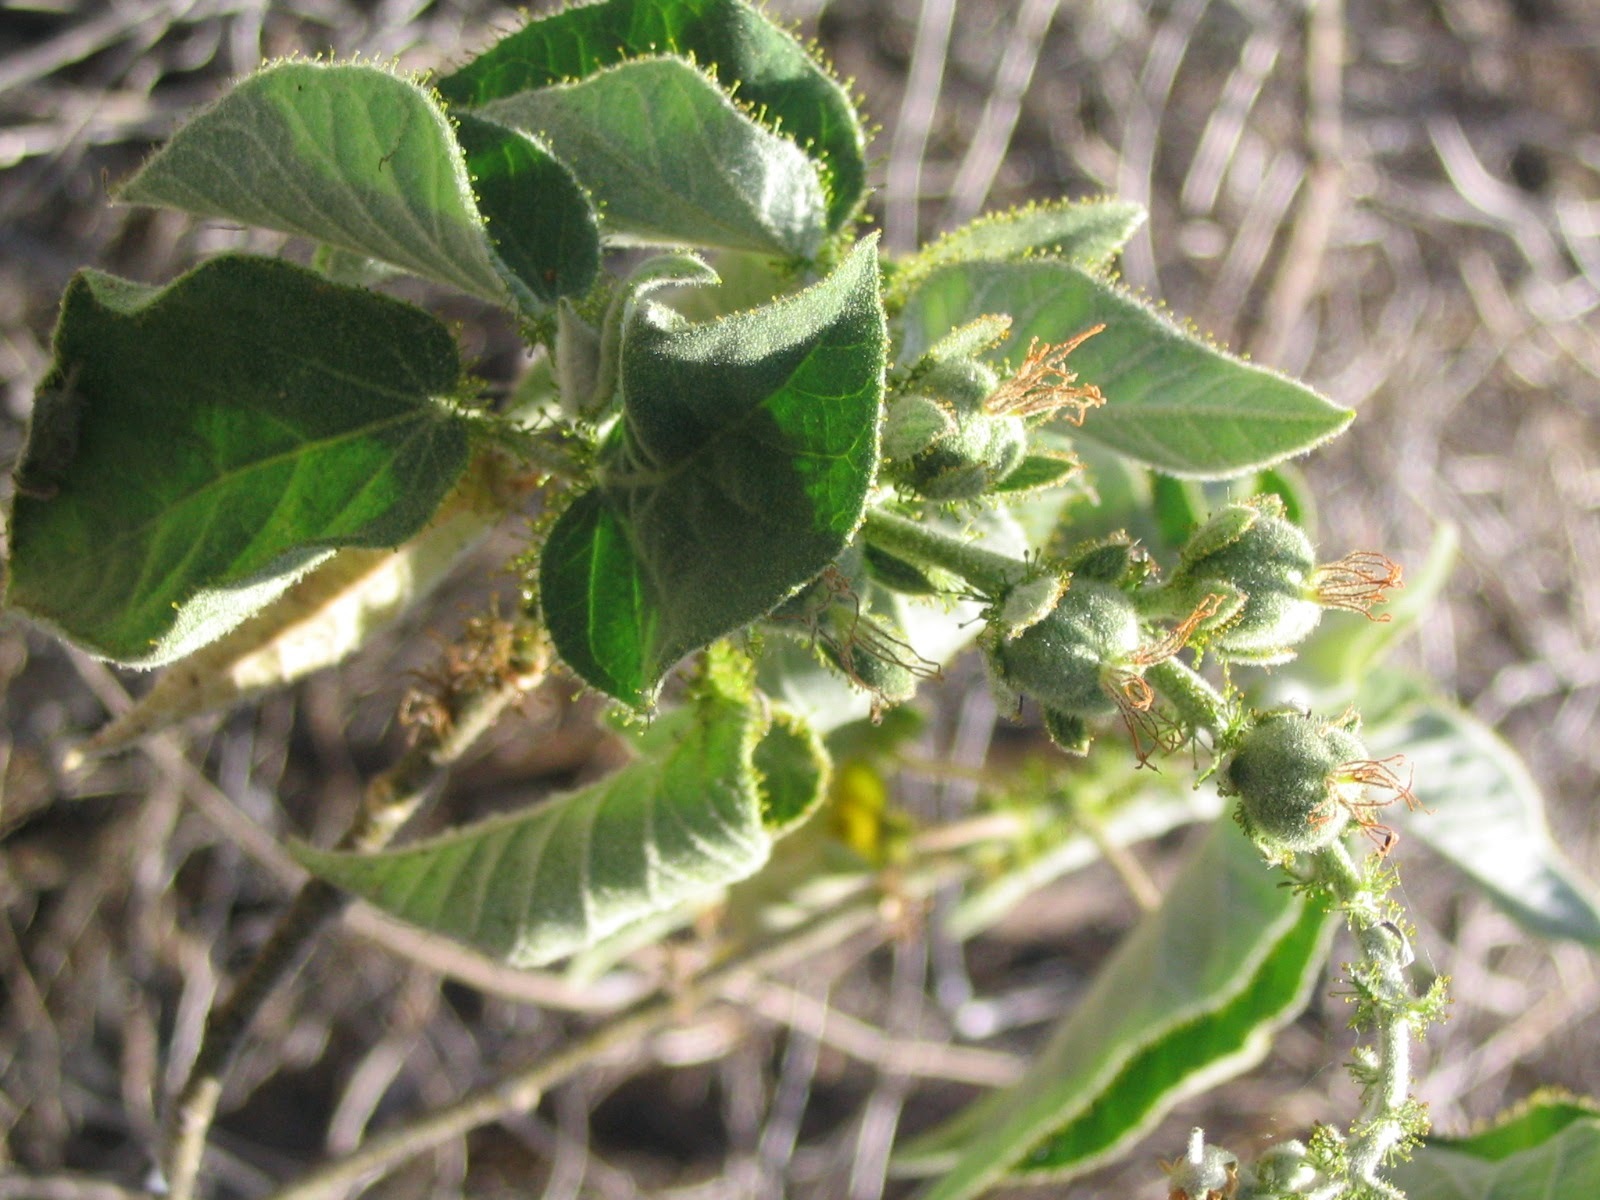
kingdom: Plantae
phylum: Tracheophyta
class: Magnoliopsida
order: Malpighiales
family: Euphorbiaceae
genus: Croton
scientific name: Croton ciliatoglandulifer
